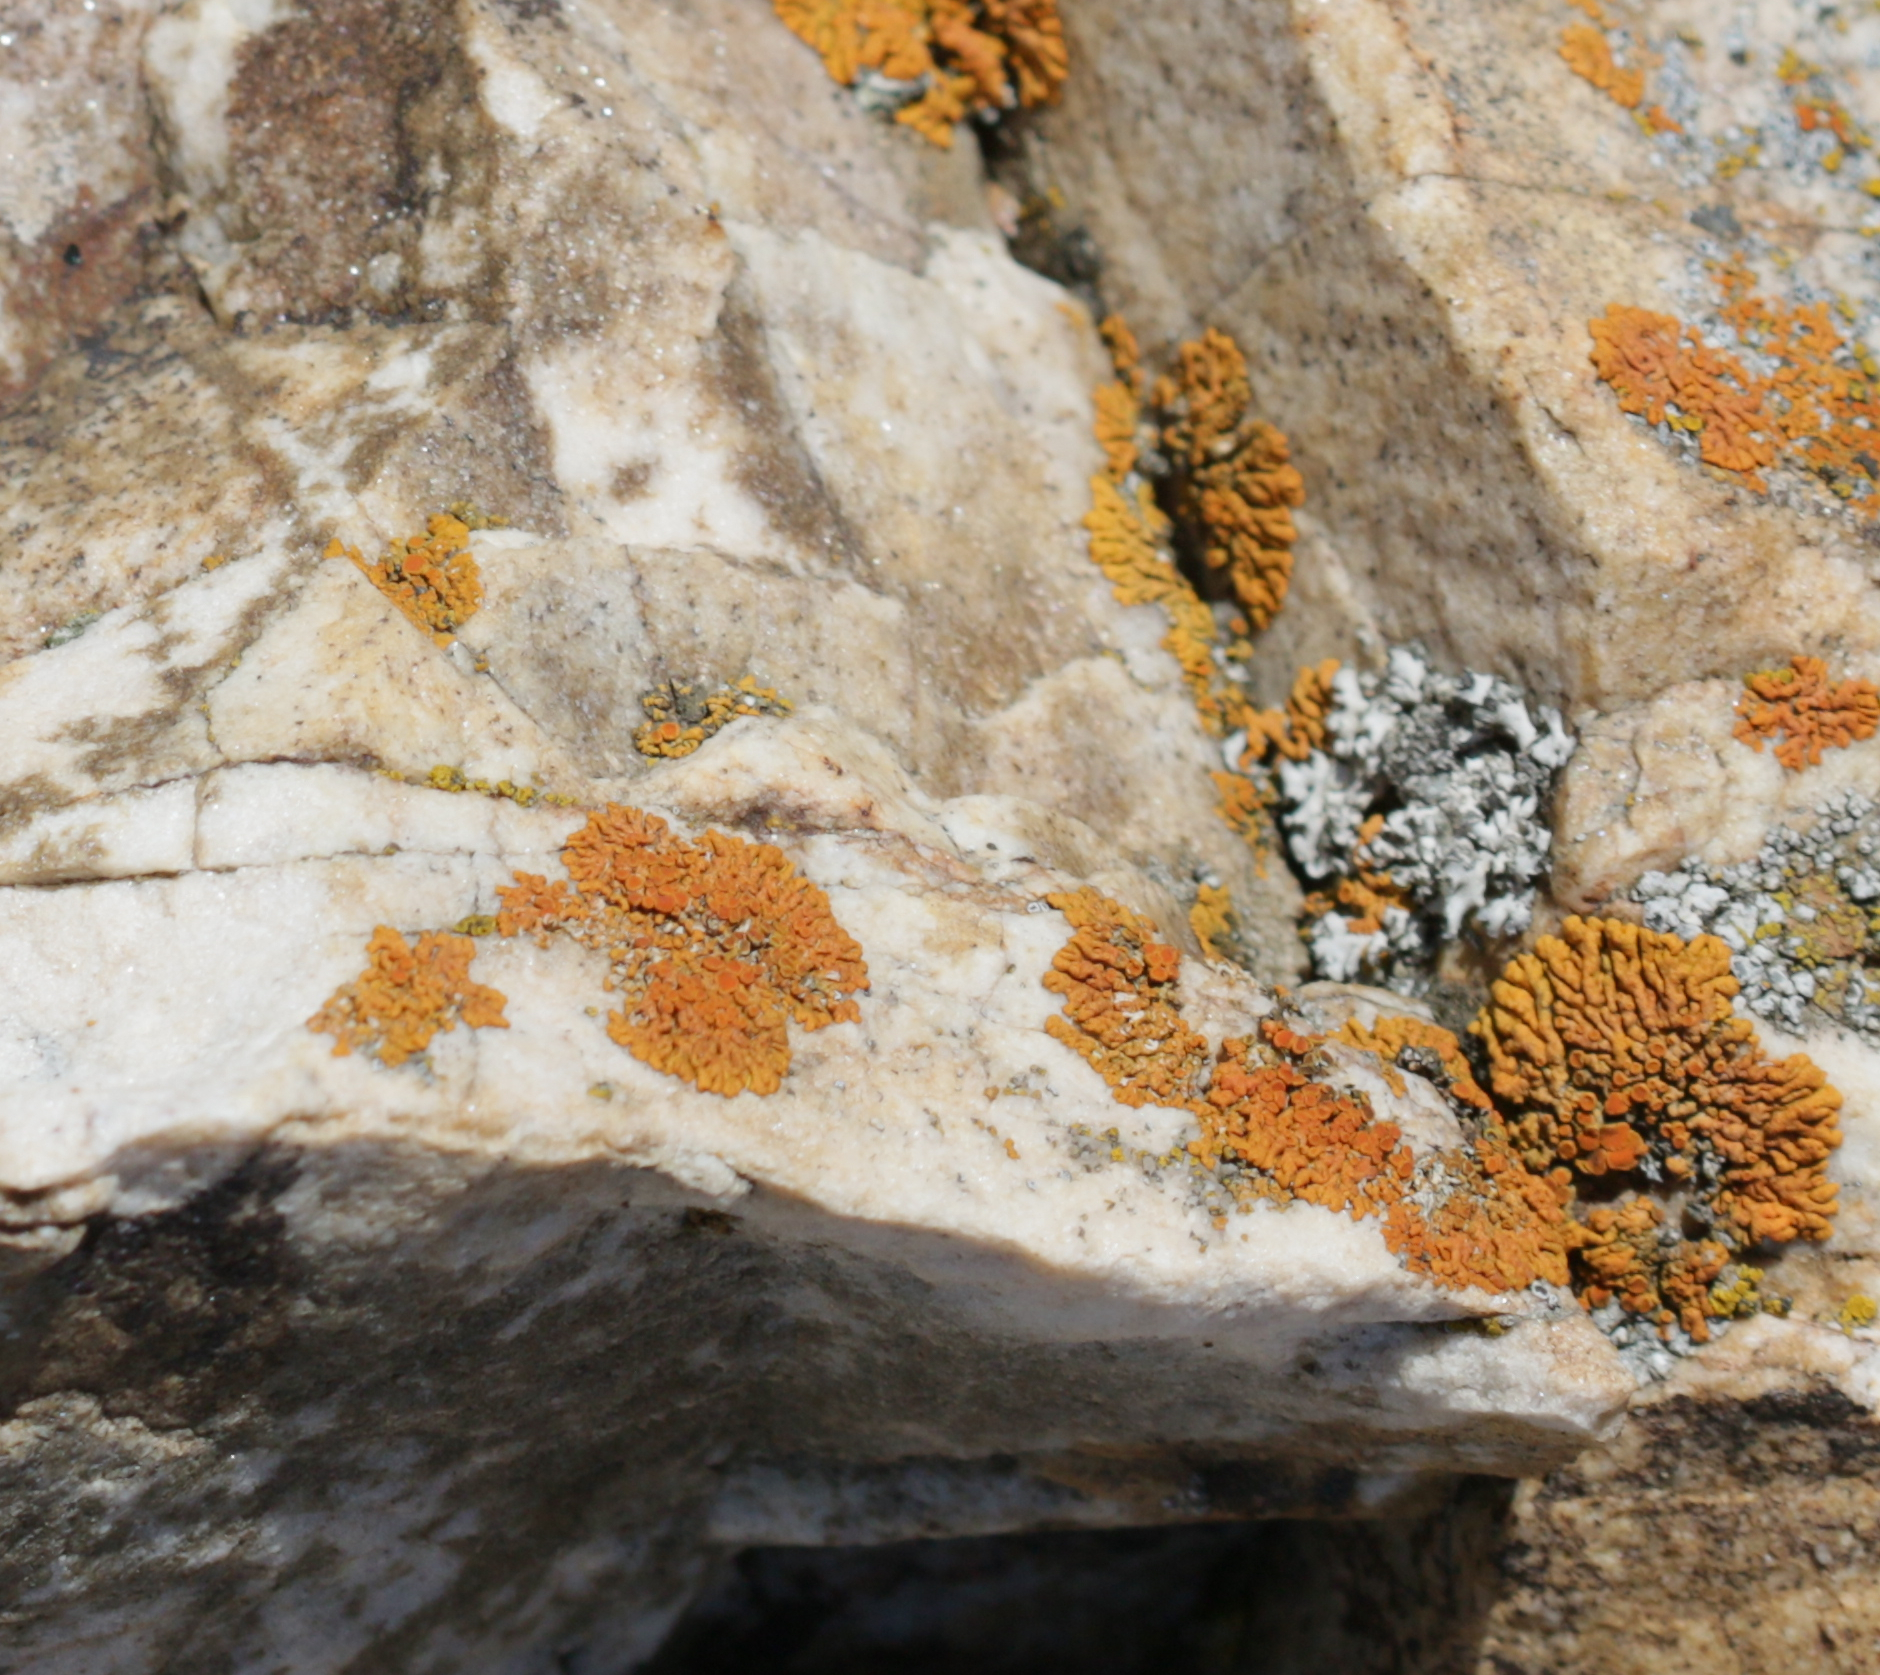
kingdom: Fungi
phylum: Ascomycota
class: Lecanoromycetes
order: Teloschistales
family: Teloschistaceae
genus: Xanthoria
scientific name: Xanthoria elegans
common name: Elegant sunburst lichen
